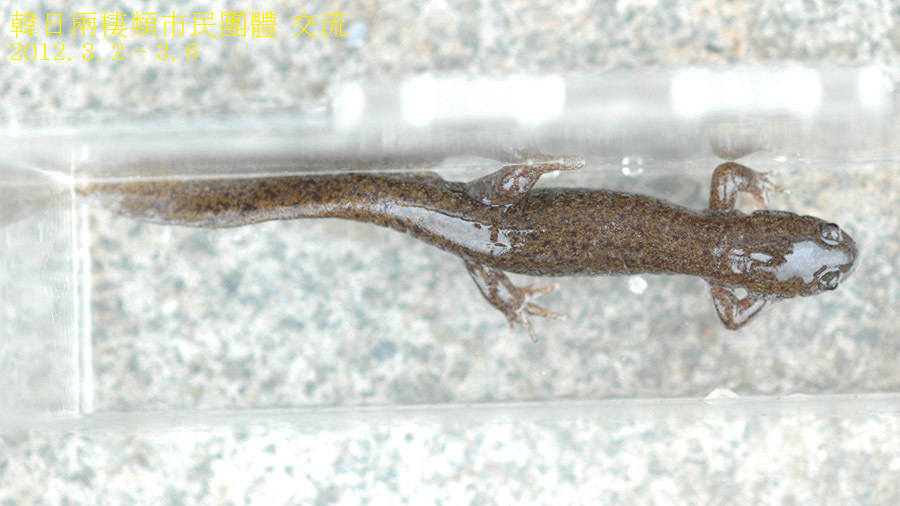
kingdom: Animalia
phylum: Chordata
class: Amphibia
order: Caudata
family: Hynobiidae
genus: Hynobius
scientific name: Hynobius tokyoensis
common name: Tokyo salamander
